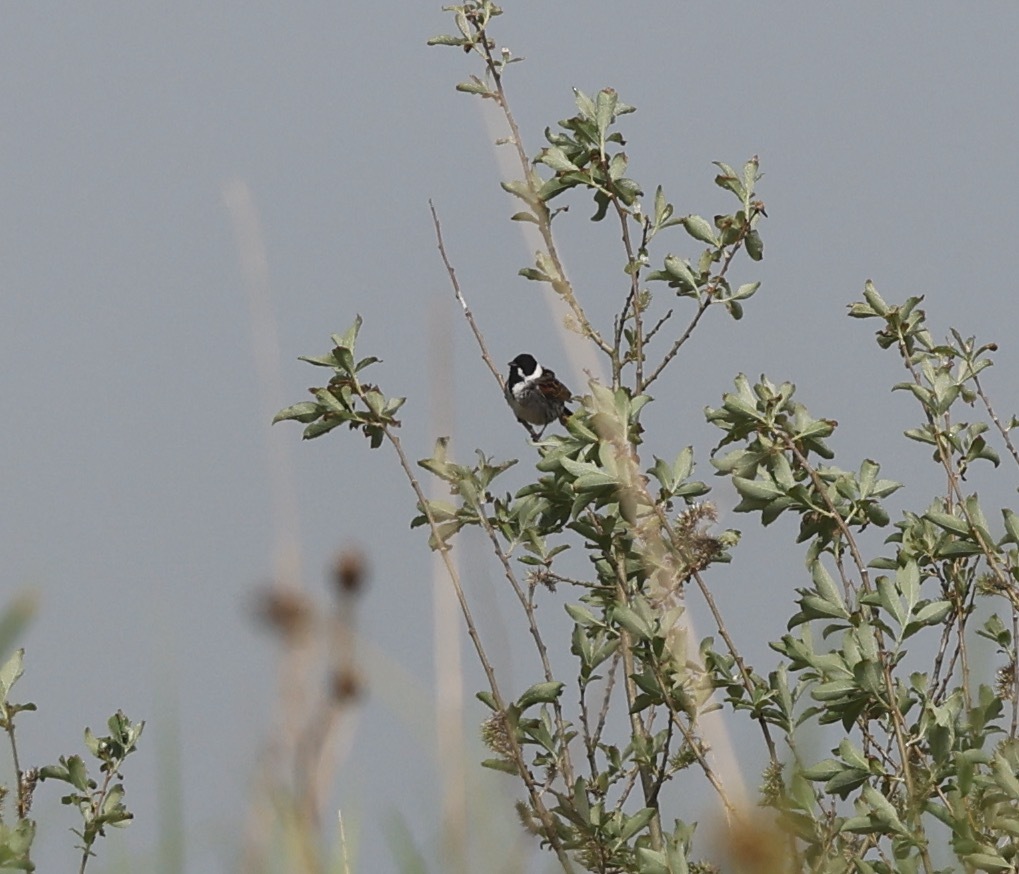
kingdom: Animalia
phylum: Chordata
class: Aves
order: Passeriformes
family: Emberizidae
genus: Emberiza
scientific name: Emberiza schoeniclus
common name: Reed bunting
